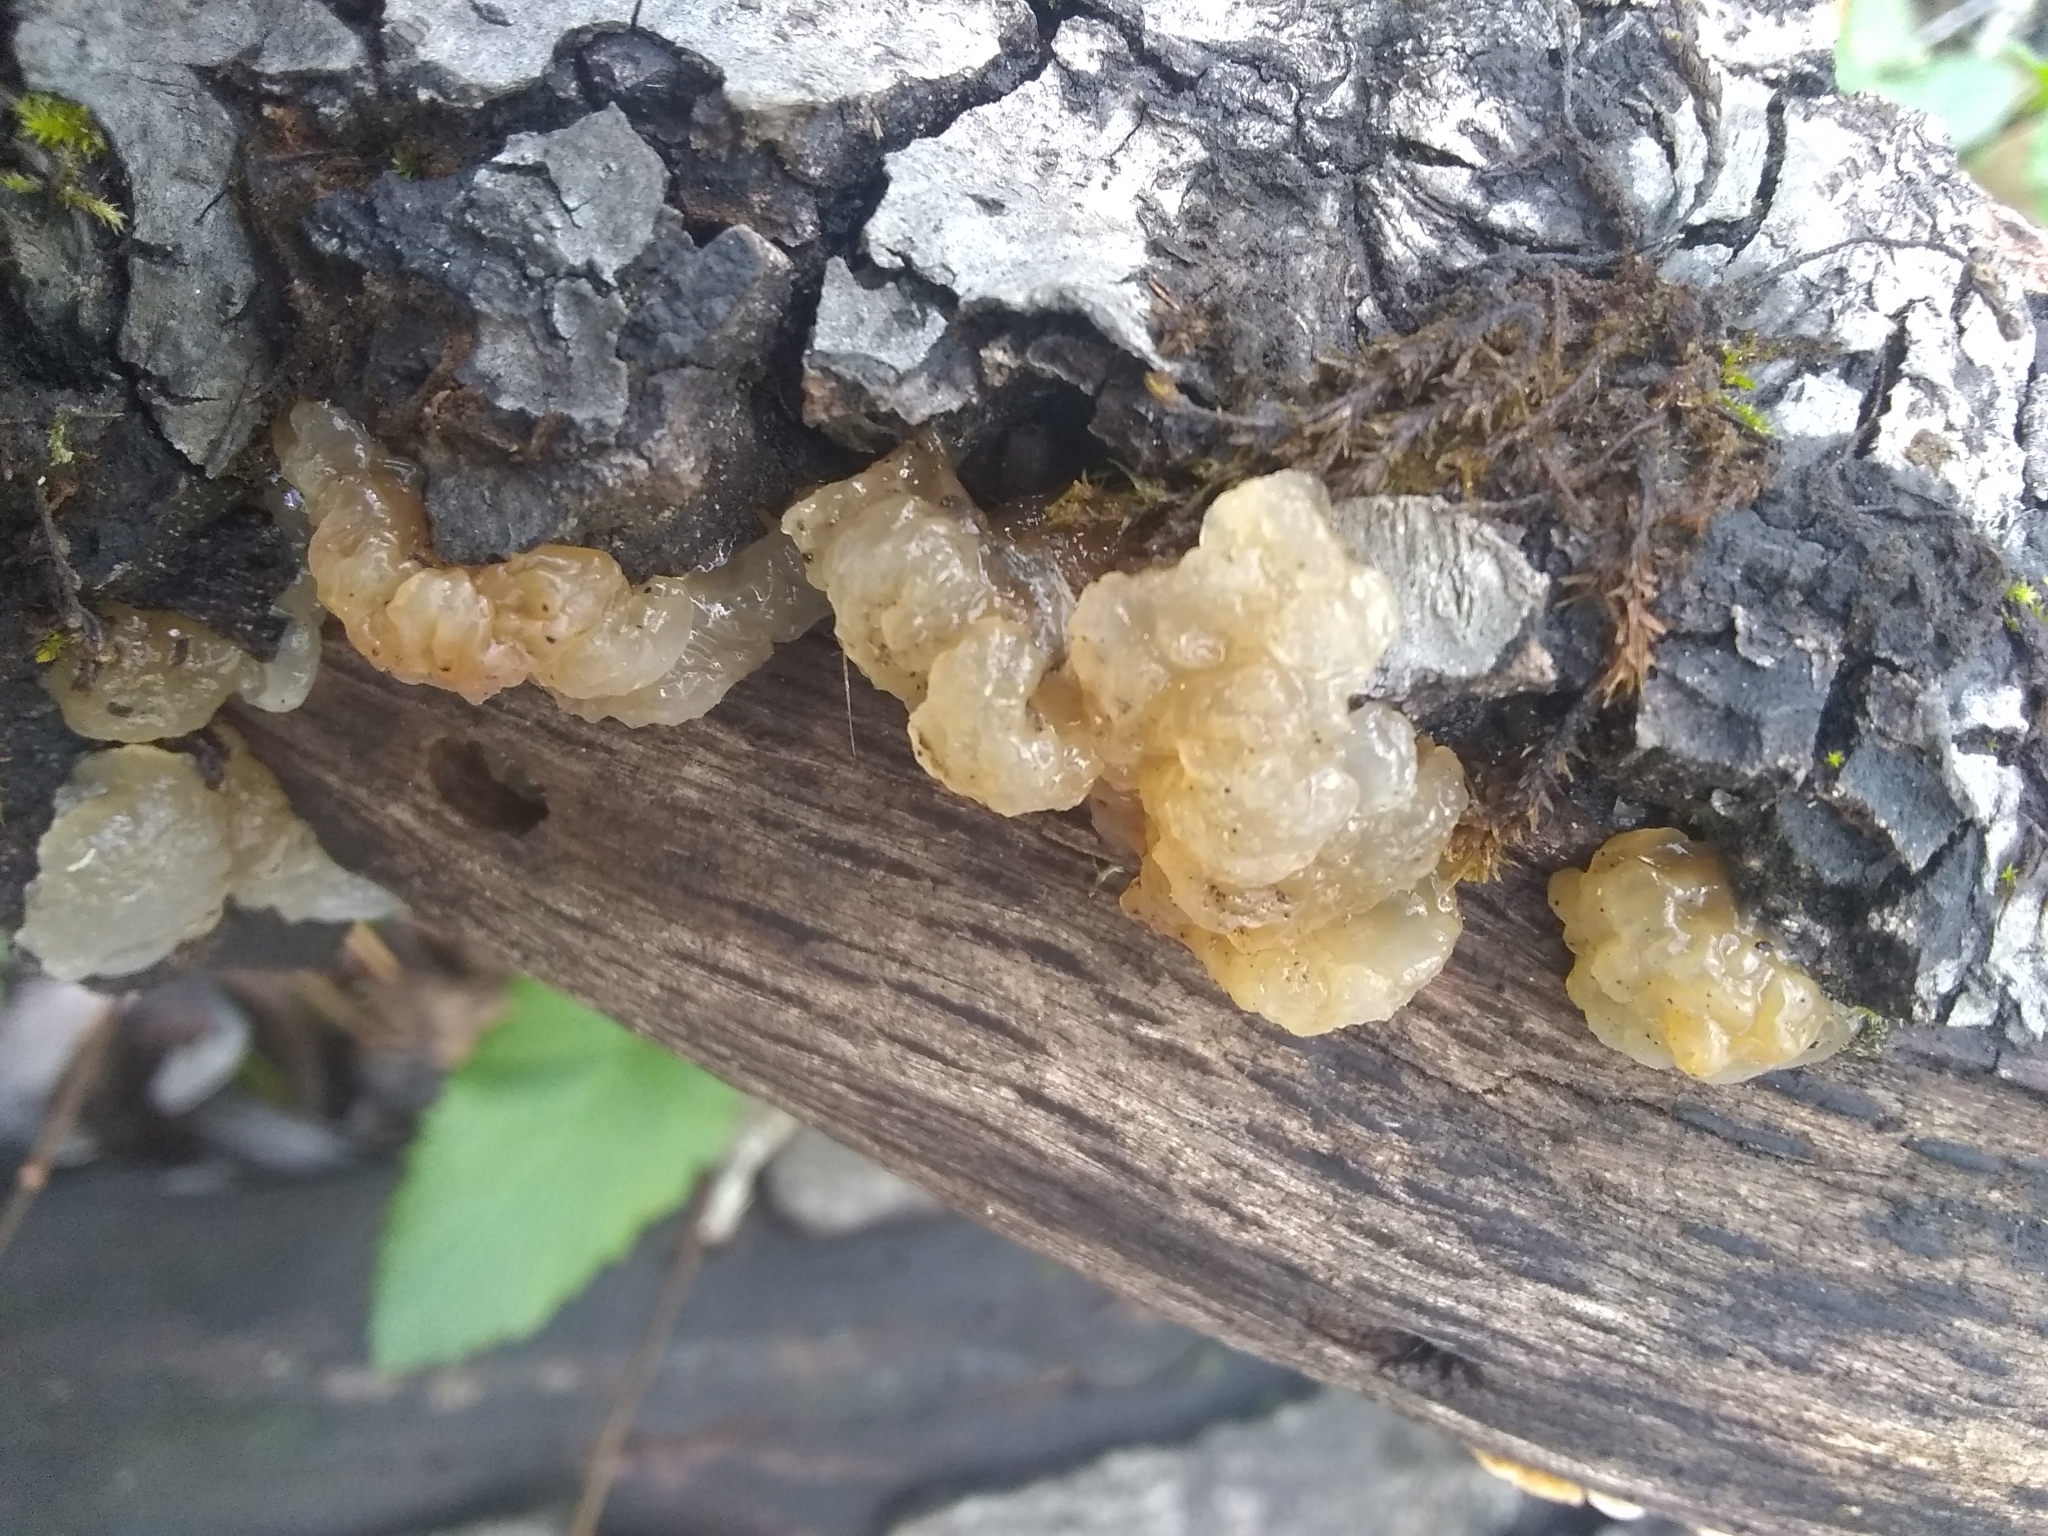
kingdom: Fungi
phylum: Basidiomycota
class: Agaricomycetes
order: Auriculariales
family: Hyaloriaceae
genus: Myxarium
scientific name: Myxarium nucleatum
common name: Crystal brain fungus
